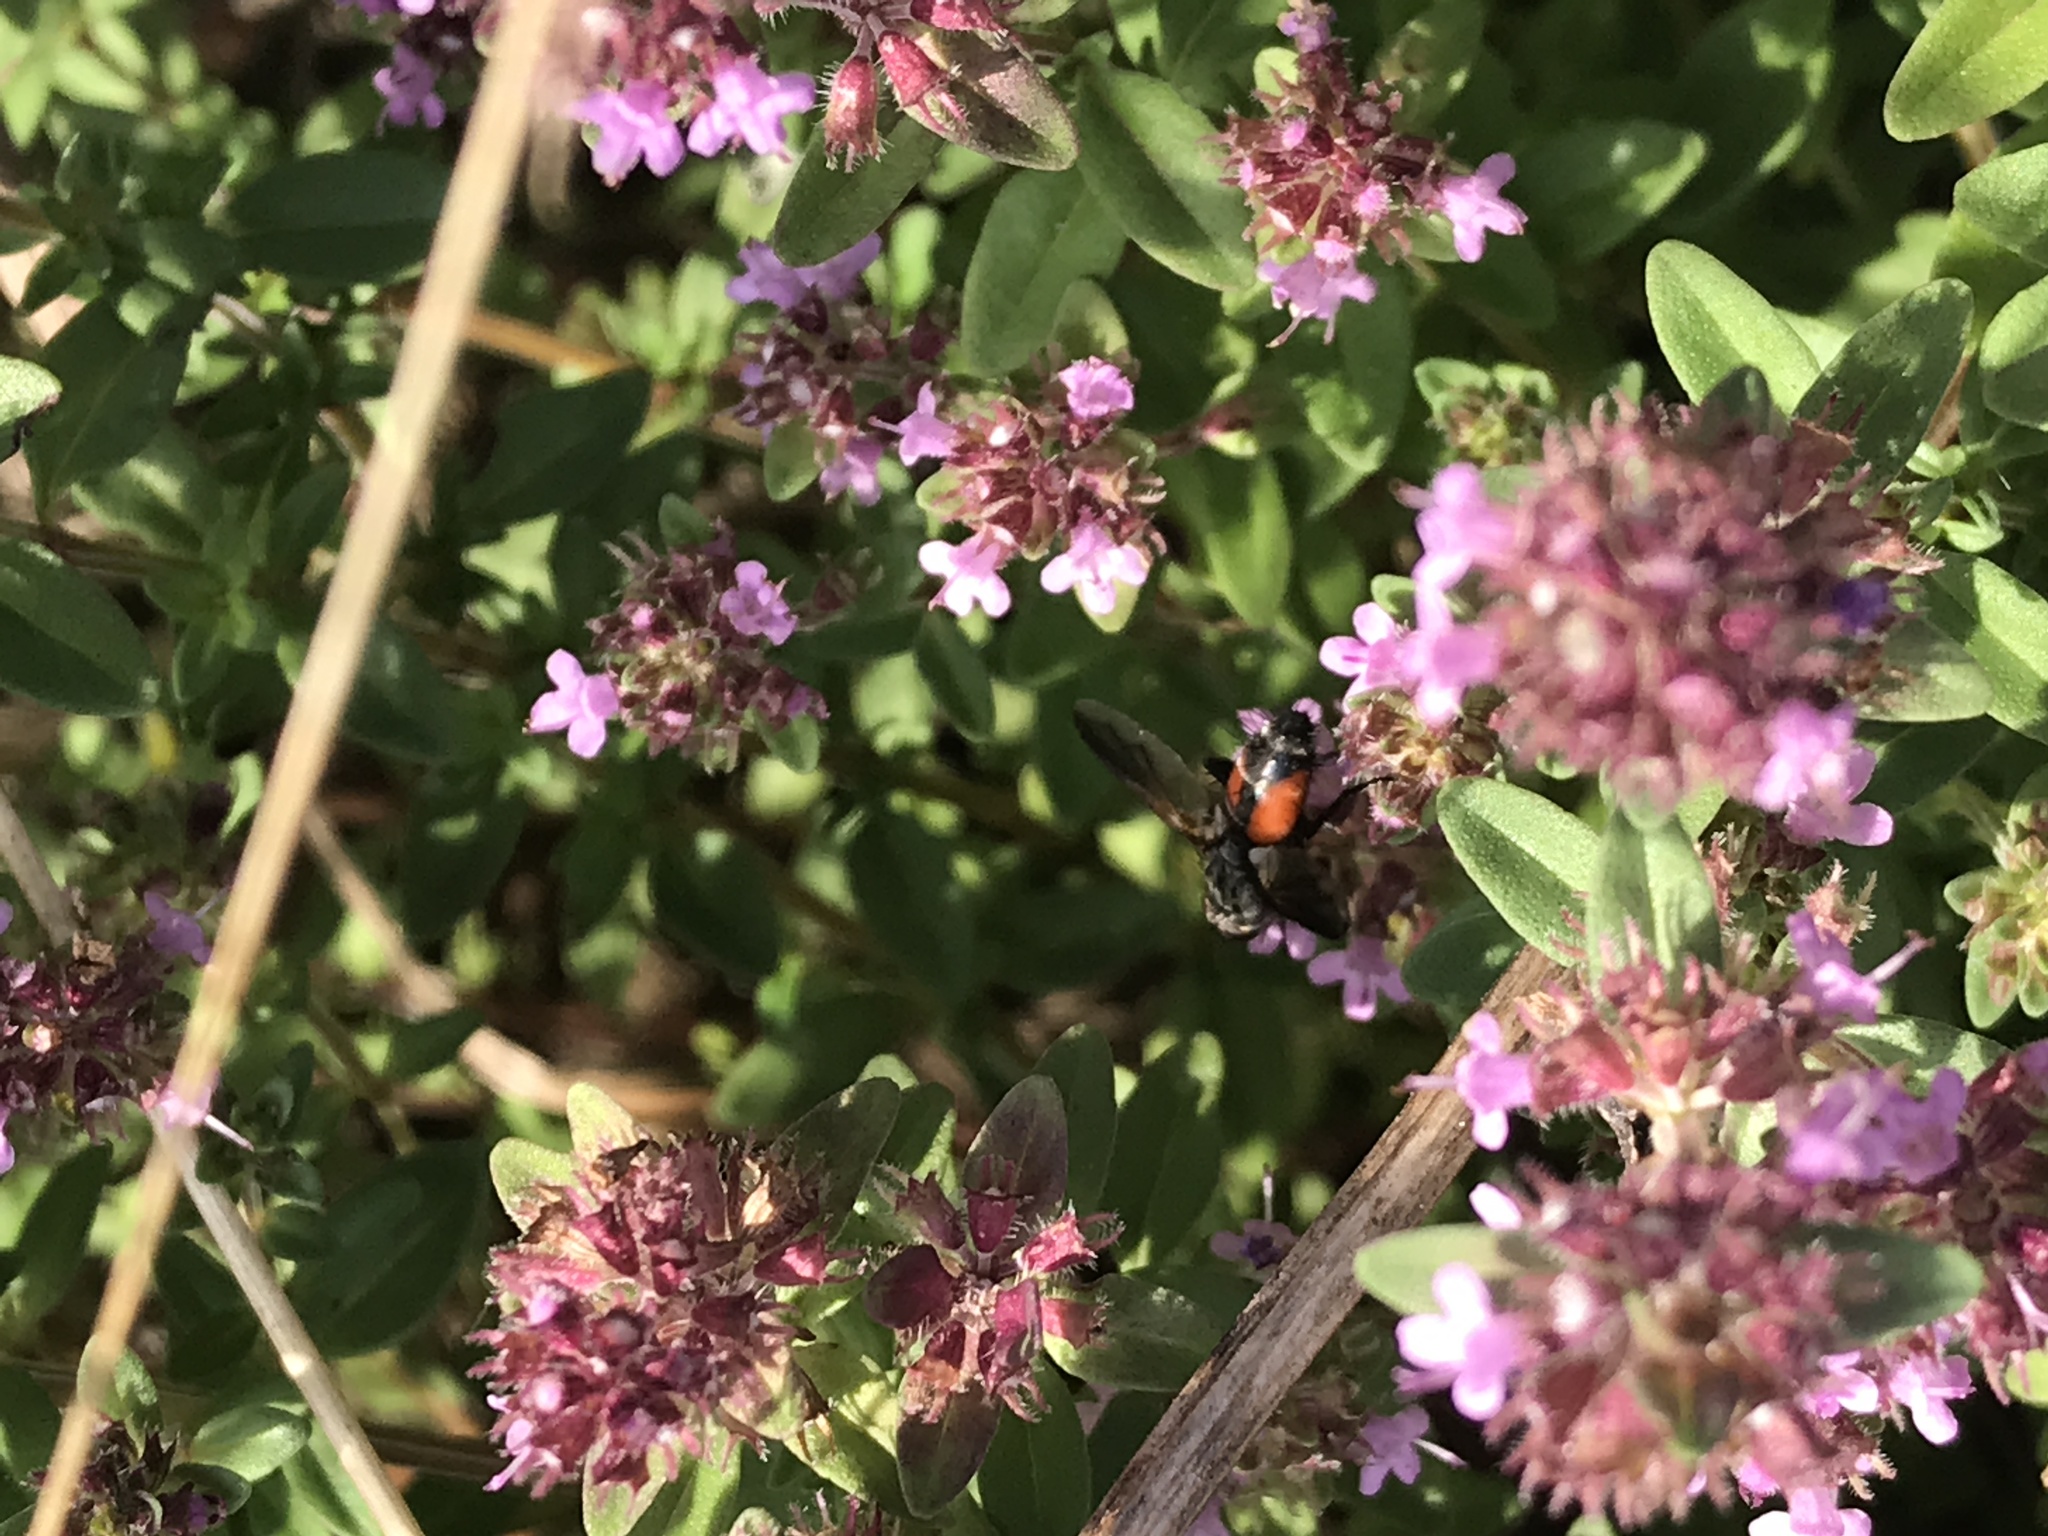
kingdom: Animalia
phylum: Arthropoda
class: Insecta
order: Diptera
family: Tachinidae
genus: Eriothrix
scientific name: Eriothrix rufomaculatus
